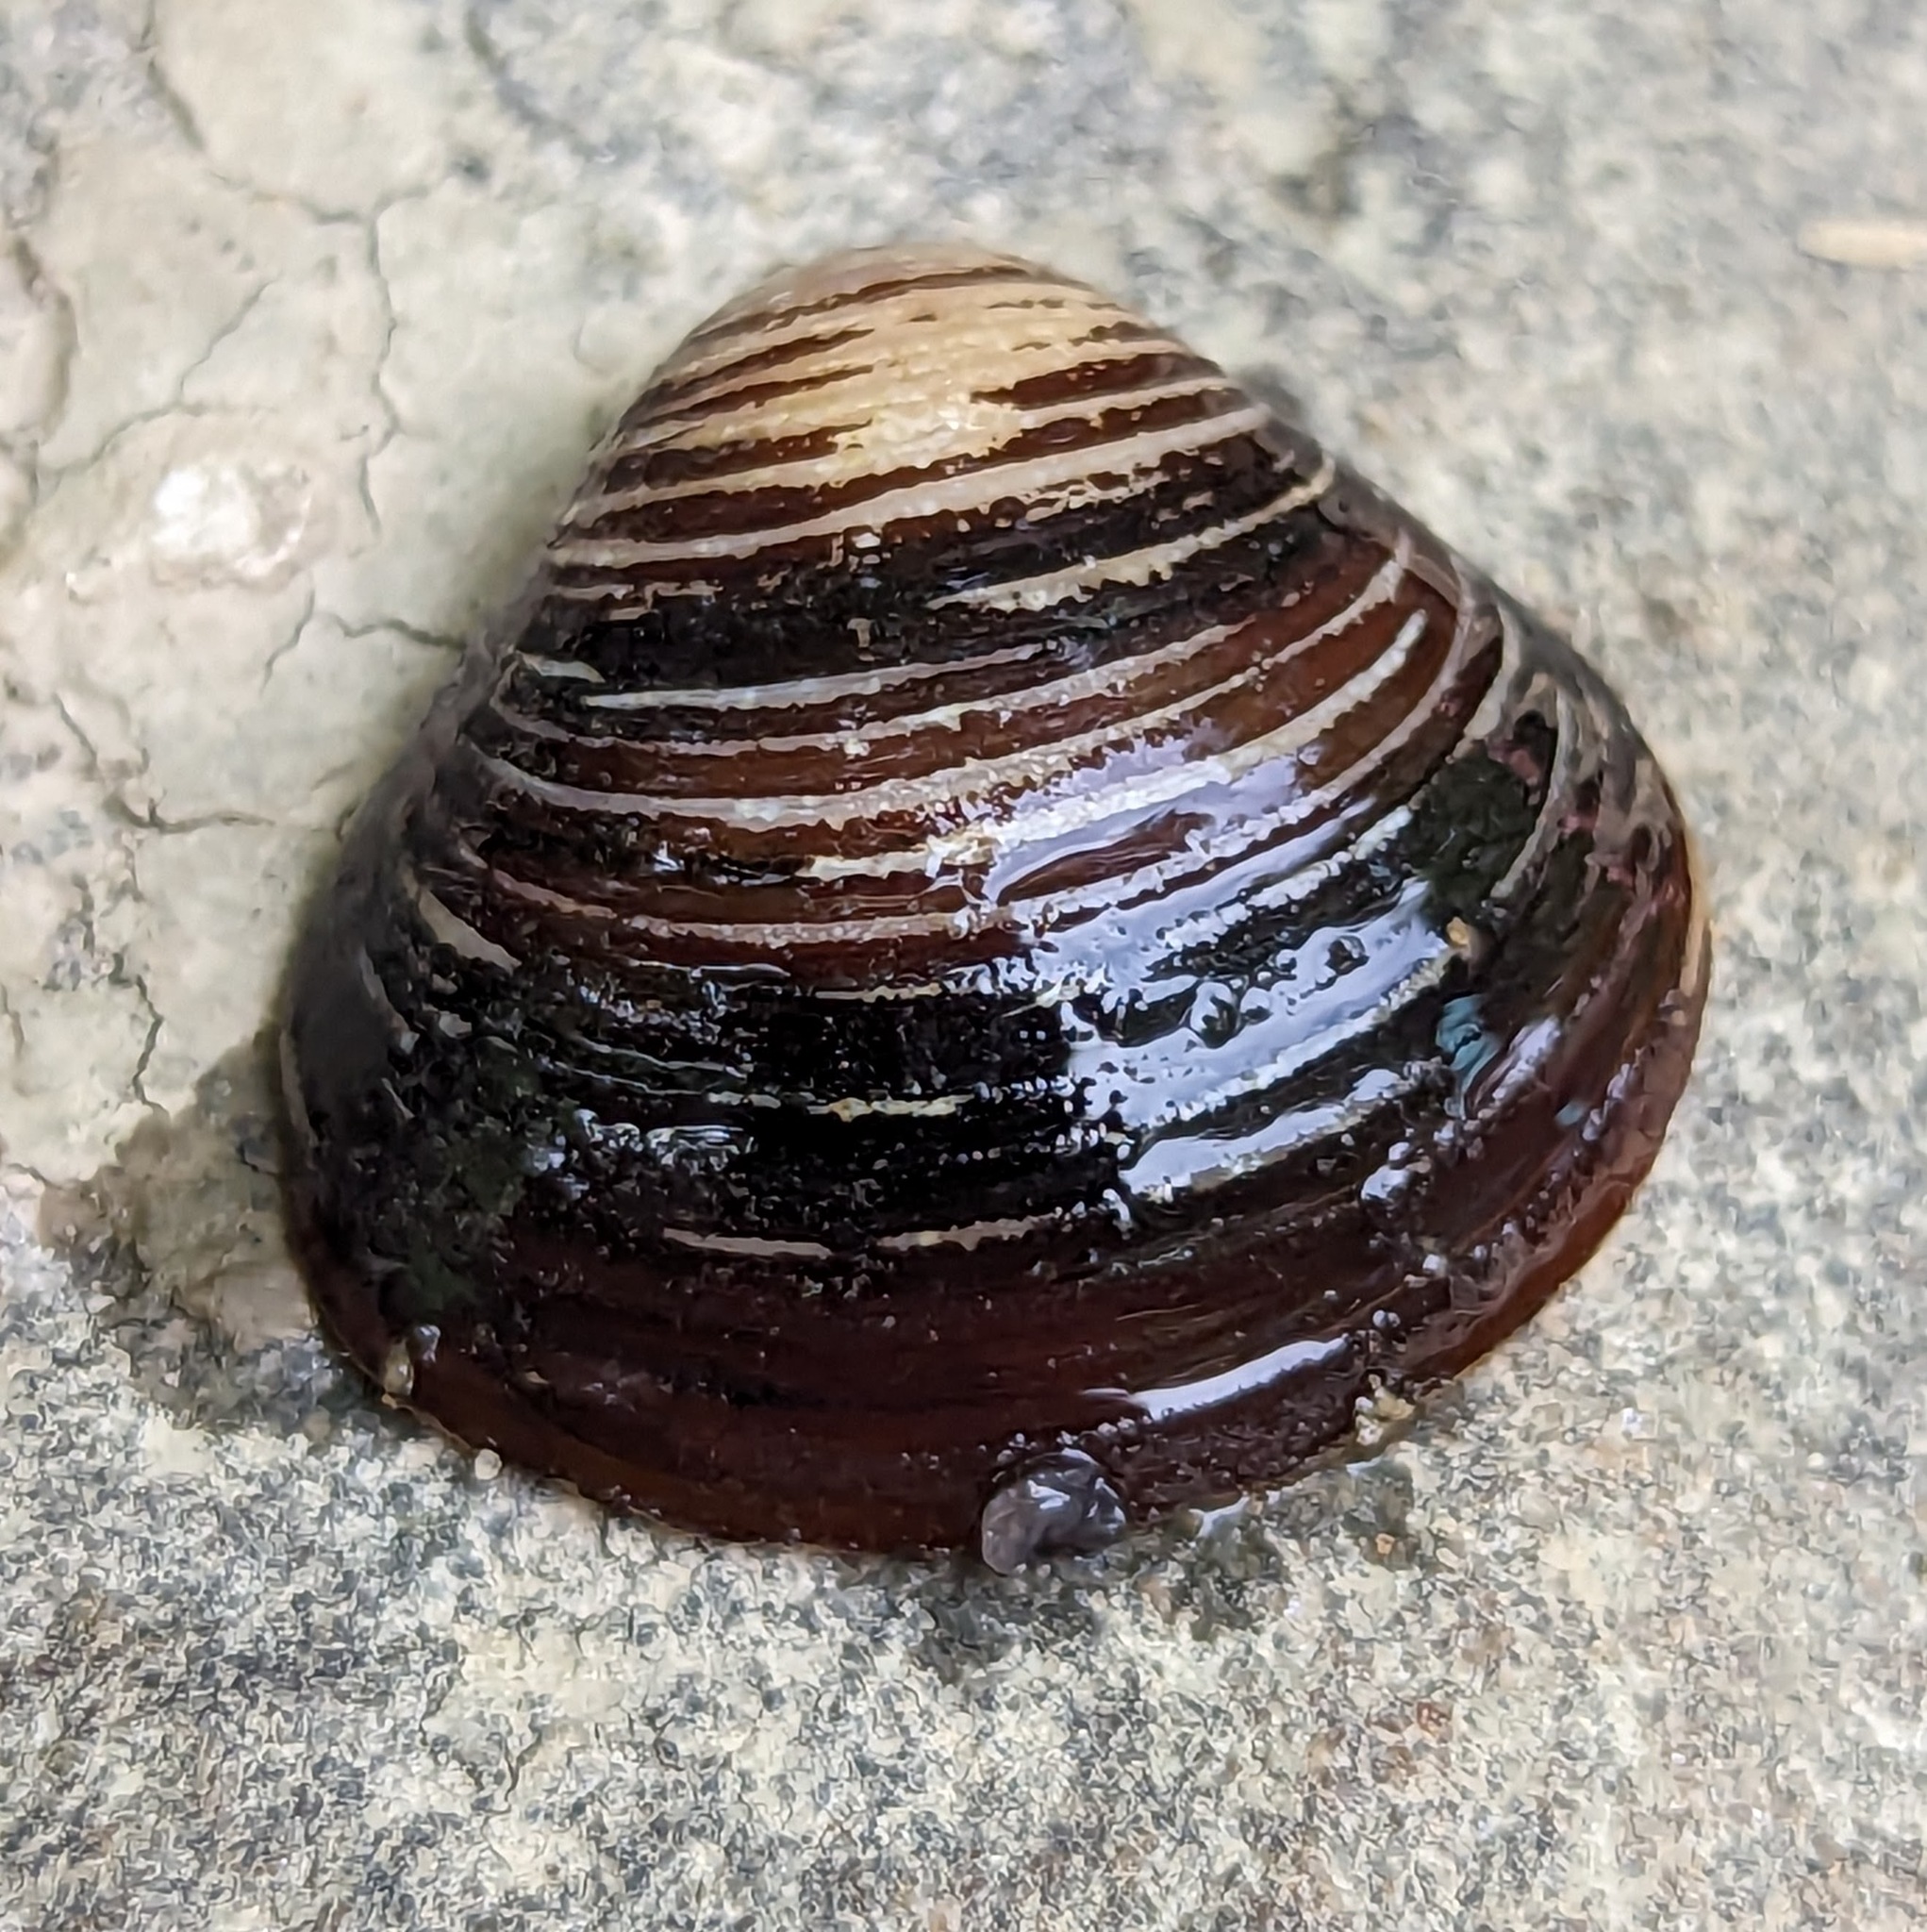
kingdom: Animalia
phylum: Mollusca
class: Bivalvia
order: Venerida
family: Cyrenidae
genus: Corbicula
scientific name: Corbicula fluminea
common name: Asian clam
